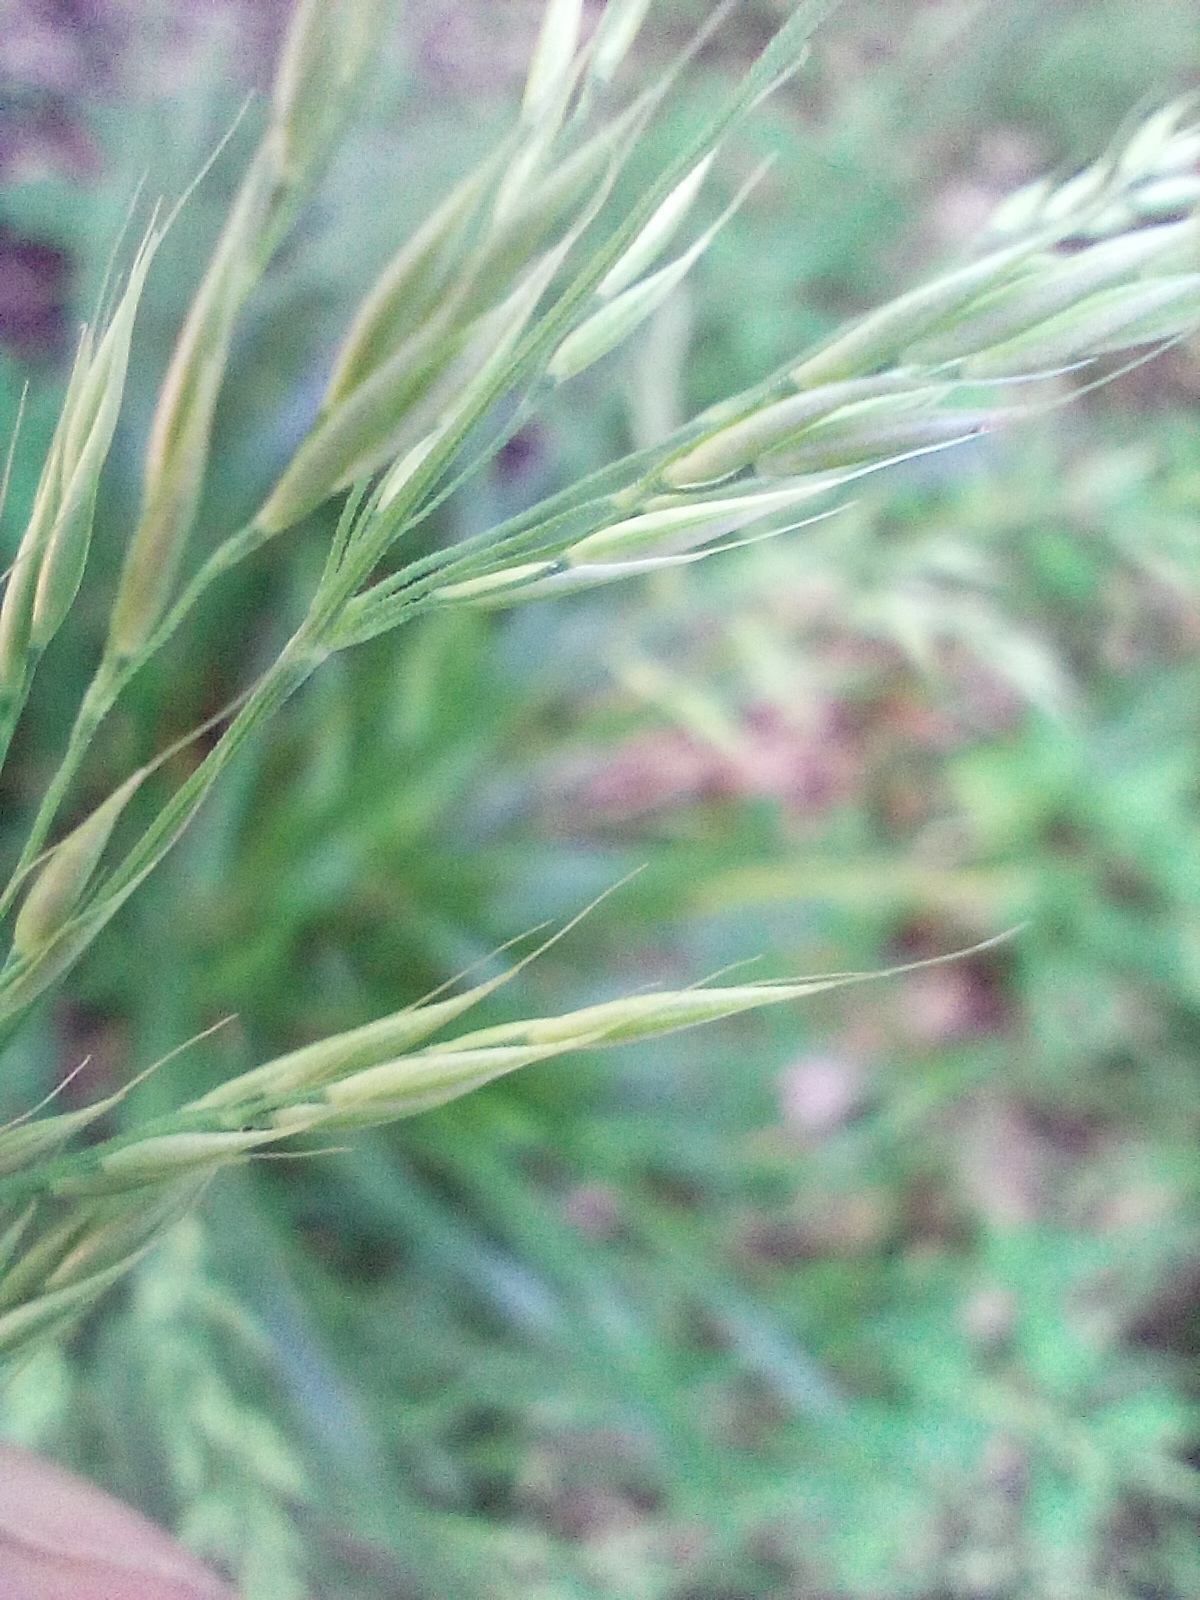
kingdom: Plantae
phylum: Tracheophyta
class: Liliopsida
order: Poales
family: Poaceae
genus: Calamagrostis
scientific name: Calamagrostis arundinacea
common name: Metskastik
